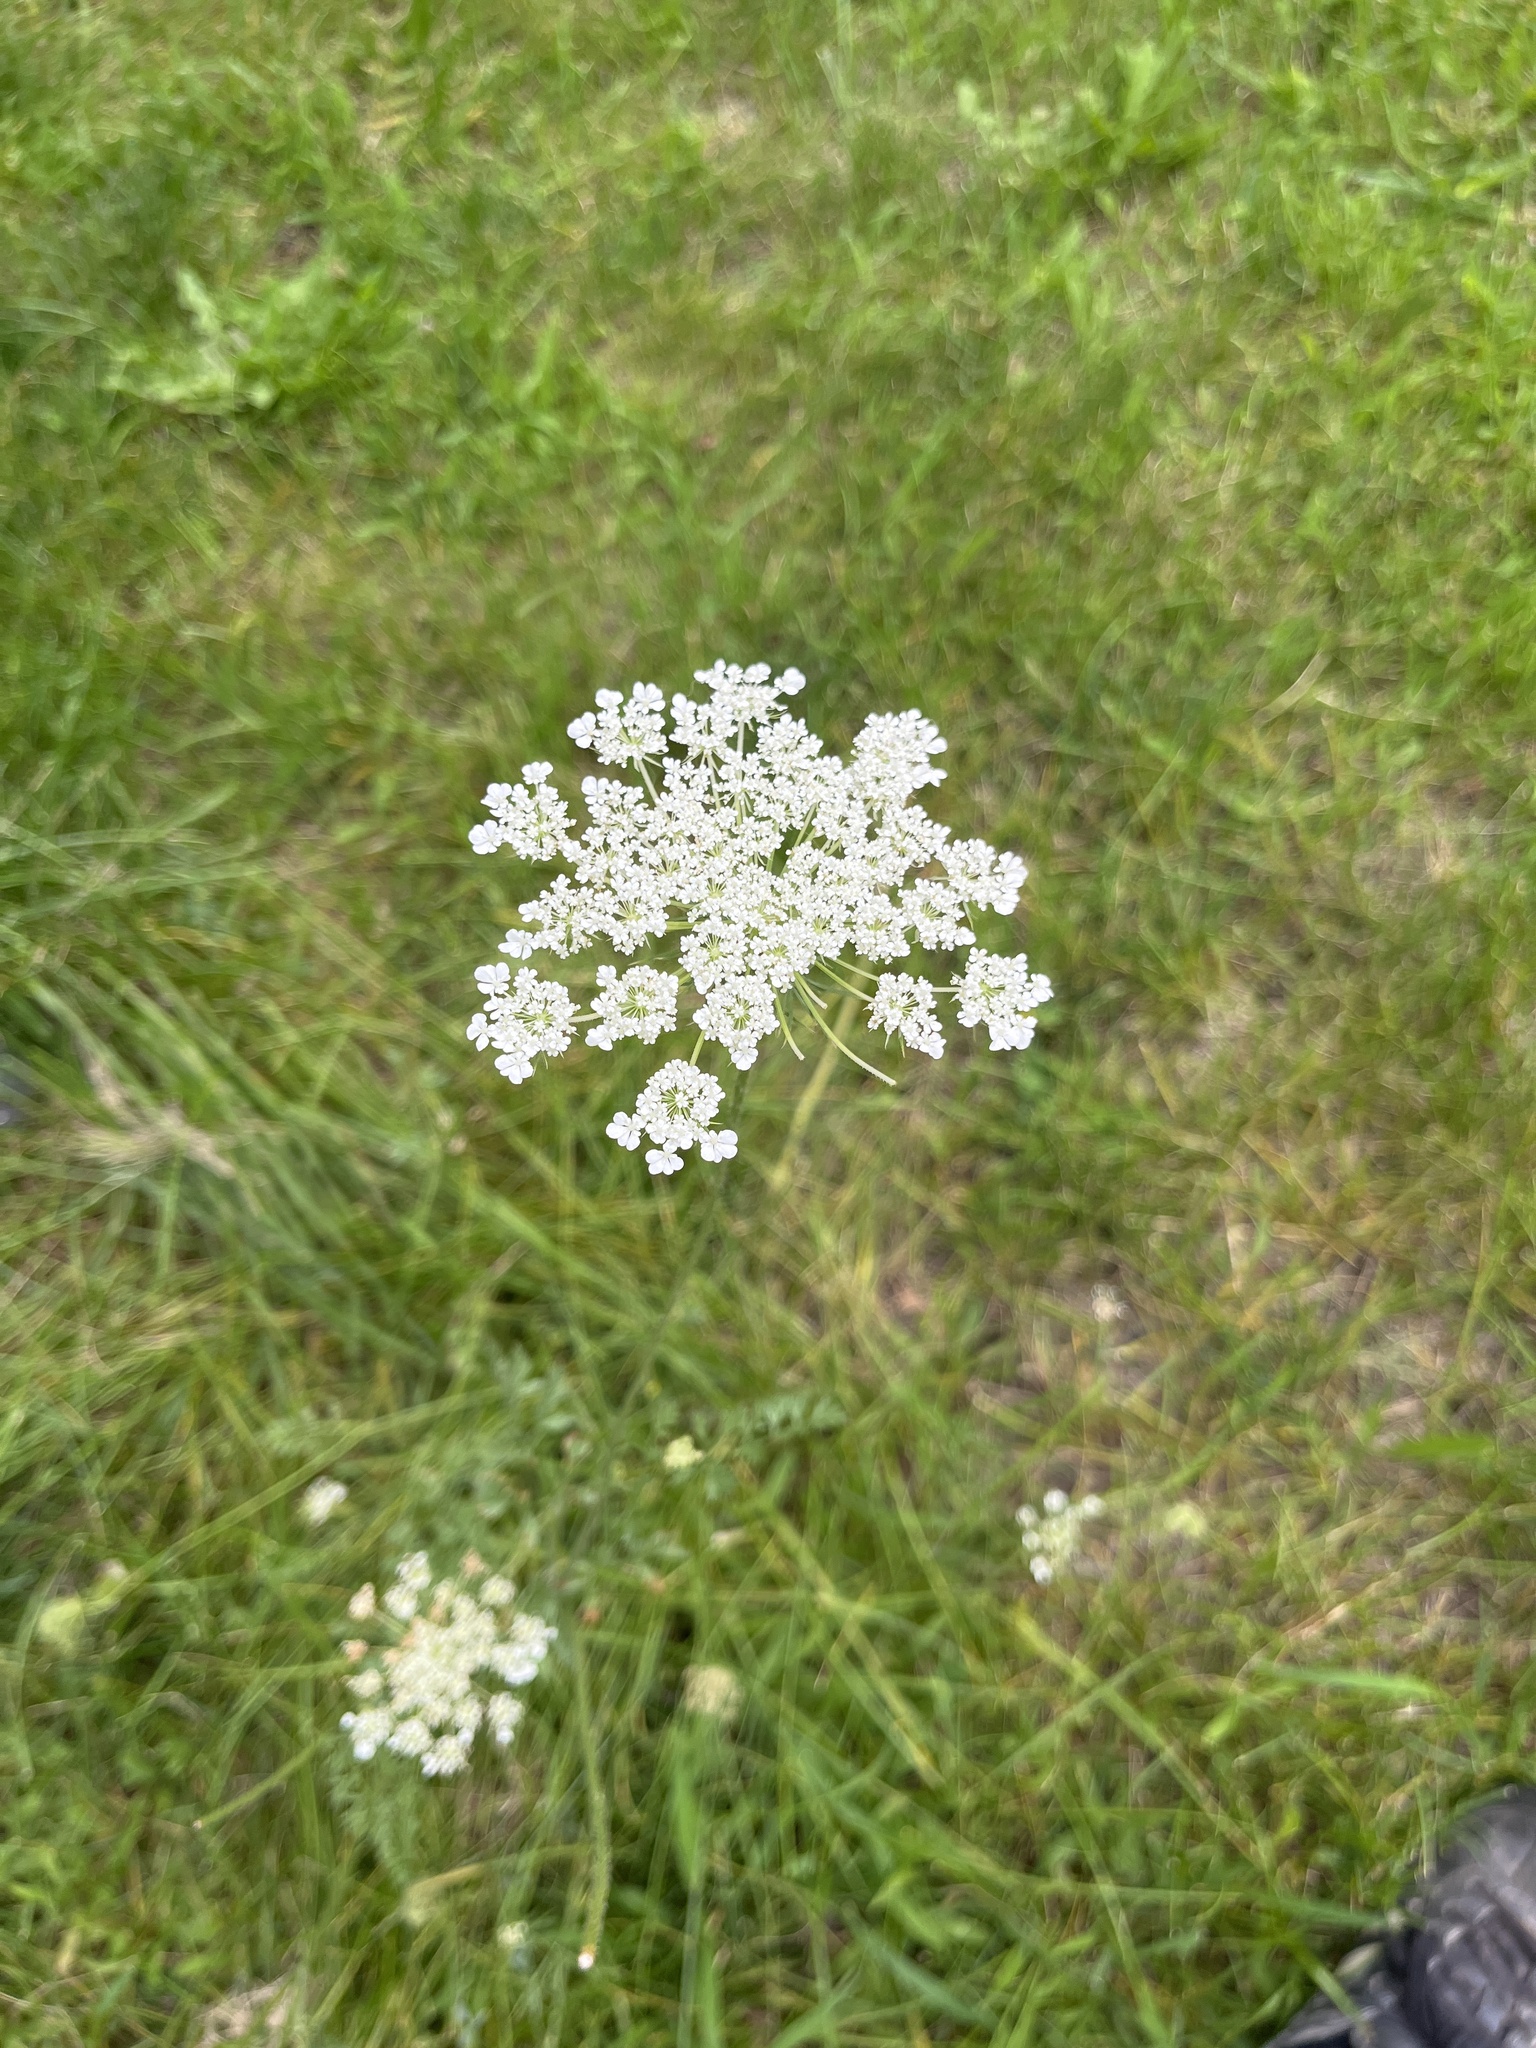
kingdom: Plantae
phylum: Tracheophyta
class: Magnoliopsida
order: Apiales
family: Apiaceae
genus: Daucus
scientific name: Daucus carota
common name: Wild carrot
